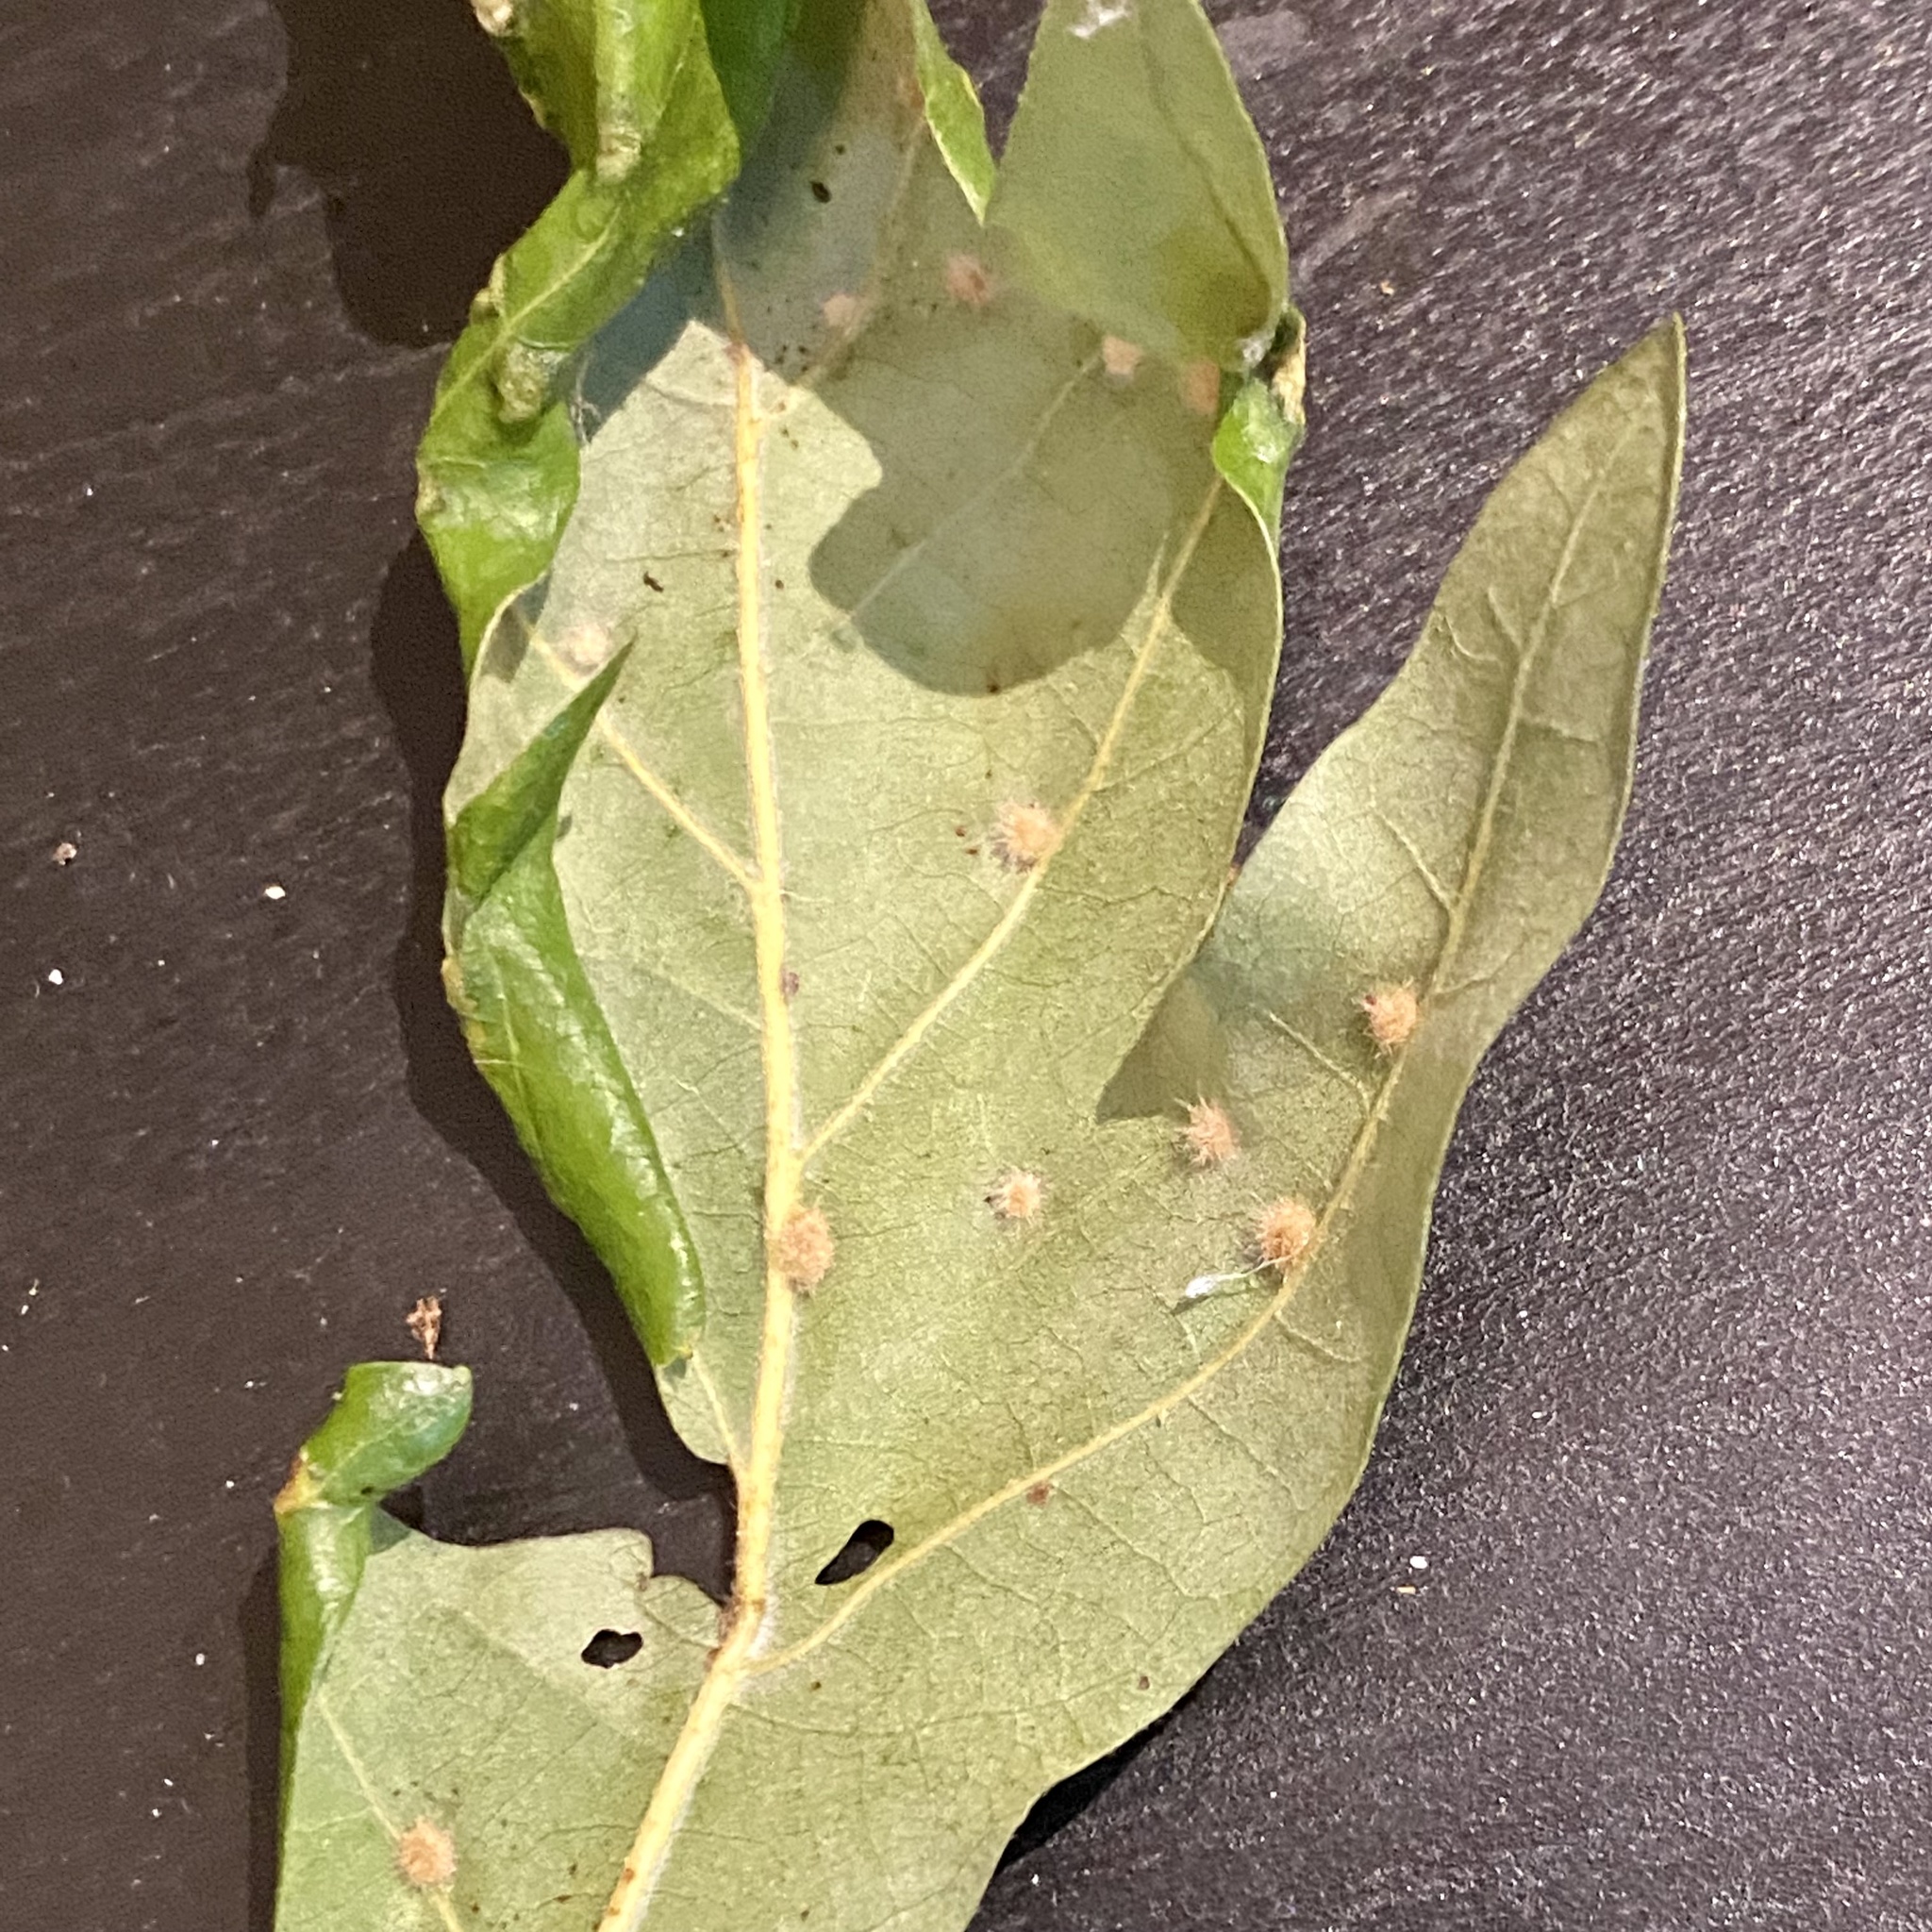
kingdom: Animalia
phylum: Arthropoda
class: Insecta
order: Hymenoptera
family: Cynipidae
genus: Neuroterus
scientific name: Neuroterus quercusverrucarum
